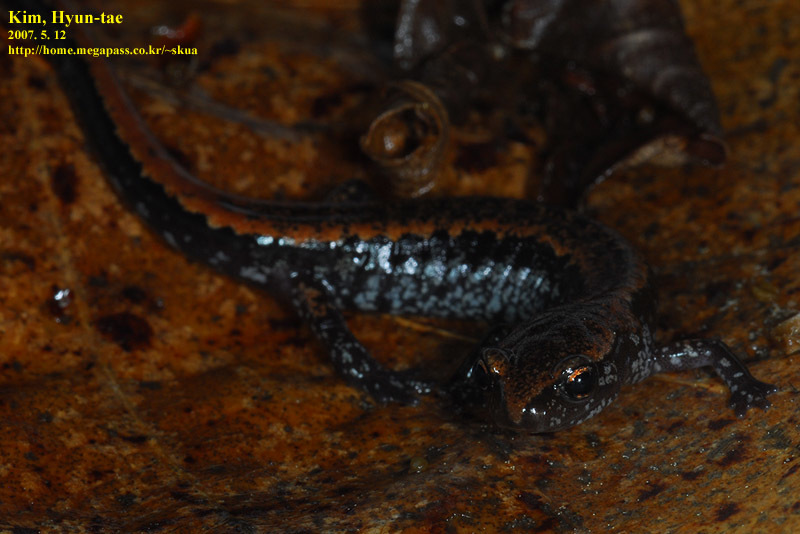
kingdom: Animalia
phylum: Chordata
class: Amphibia
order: Caudata
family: Plethodontidae
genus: Karsenia
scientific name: Karsenia koreana
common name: Korean crevice salamander
